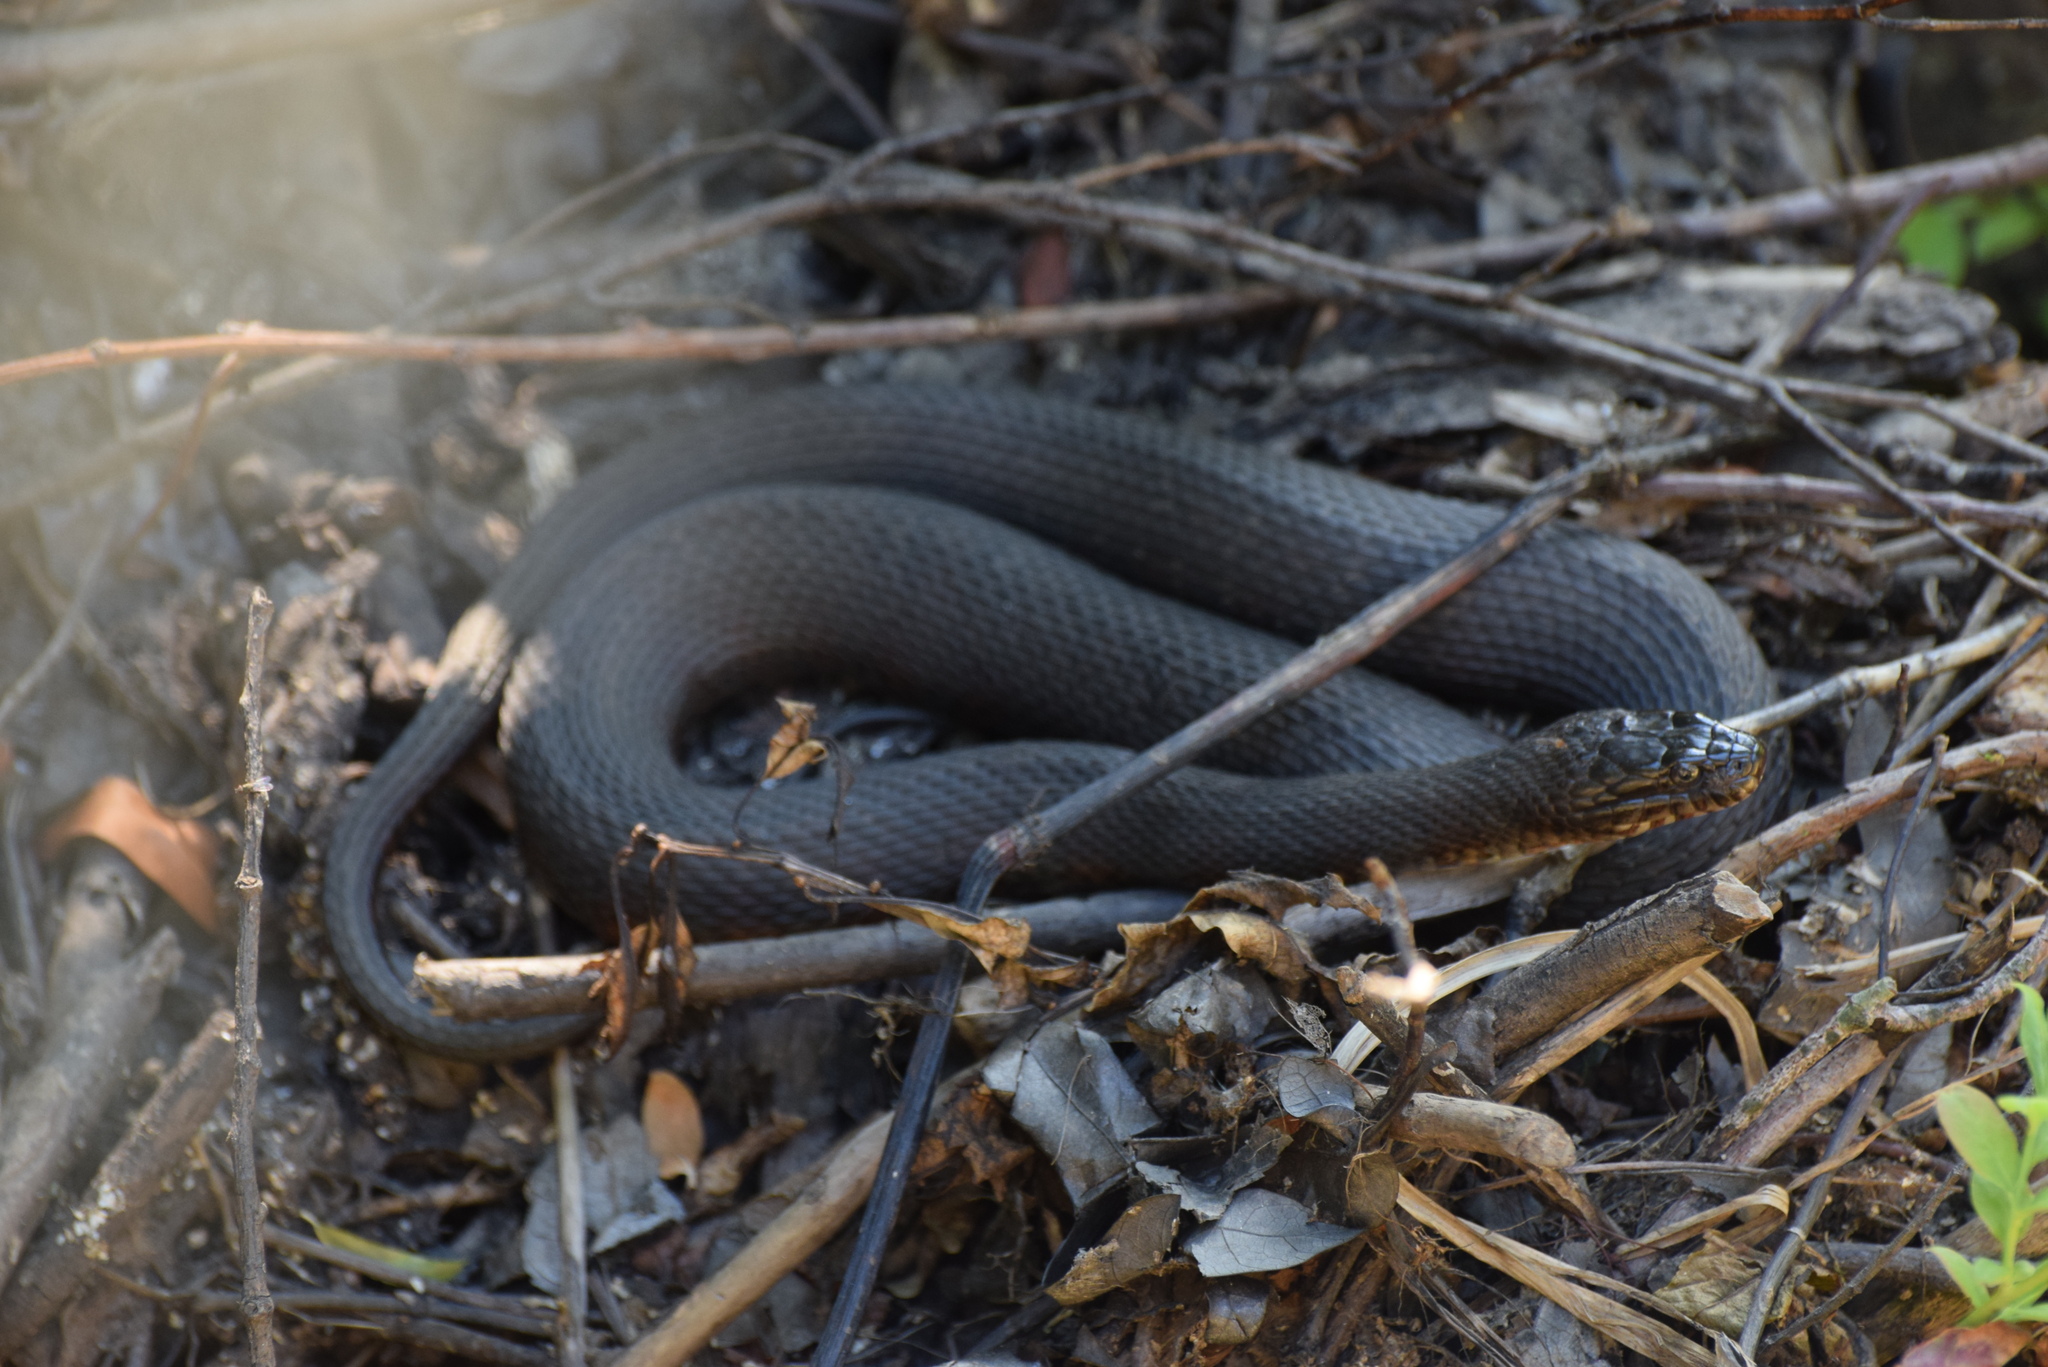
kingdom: Animalia
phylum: Chordata
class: Squamata
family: Colubridae
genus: Nerodia
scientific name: Nerodia sipedon
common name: Northern water snake
